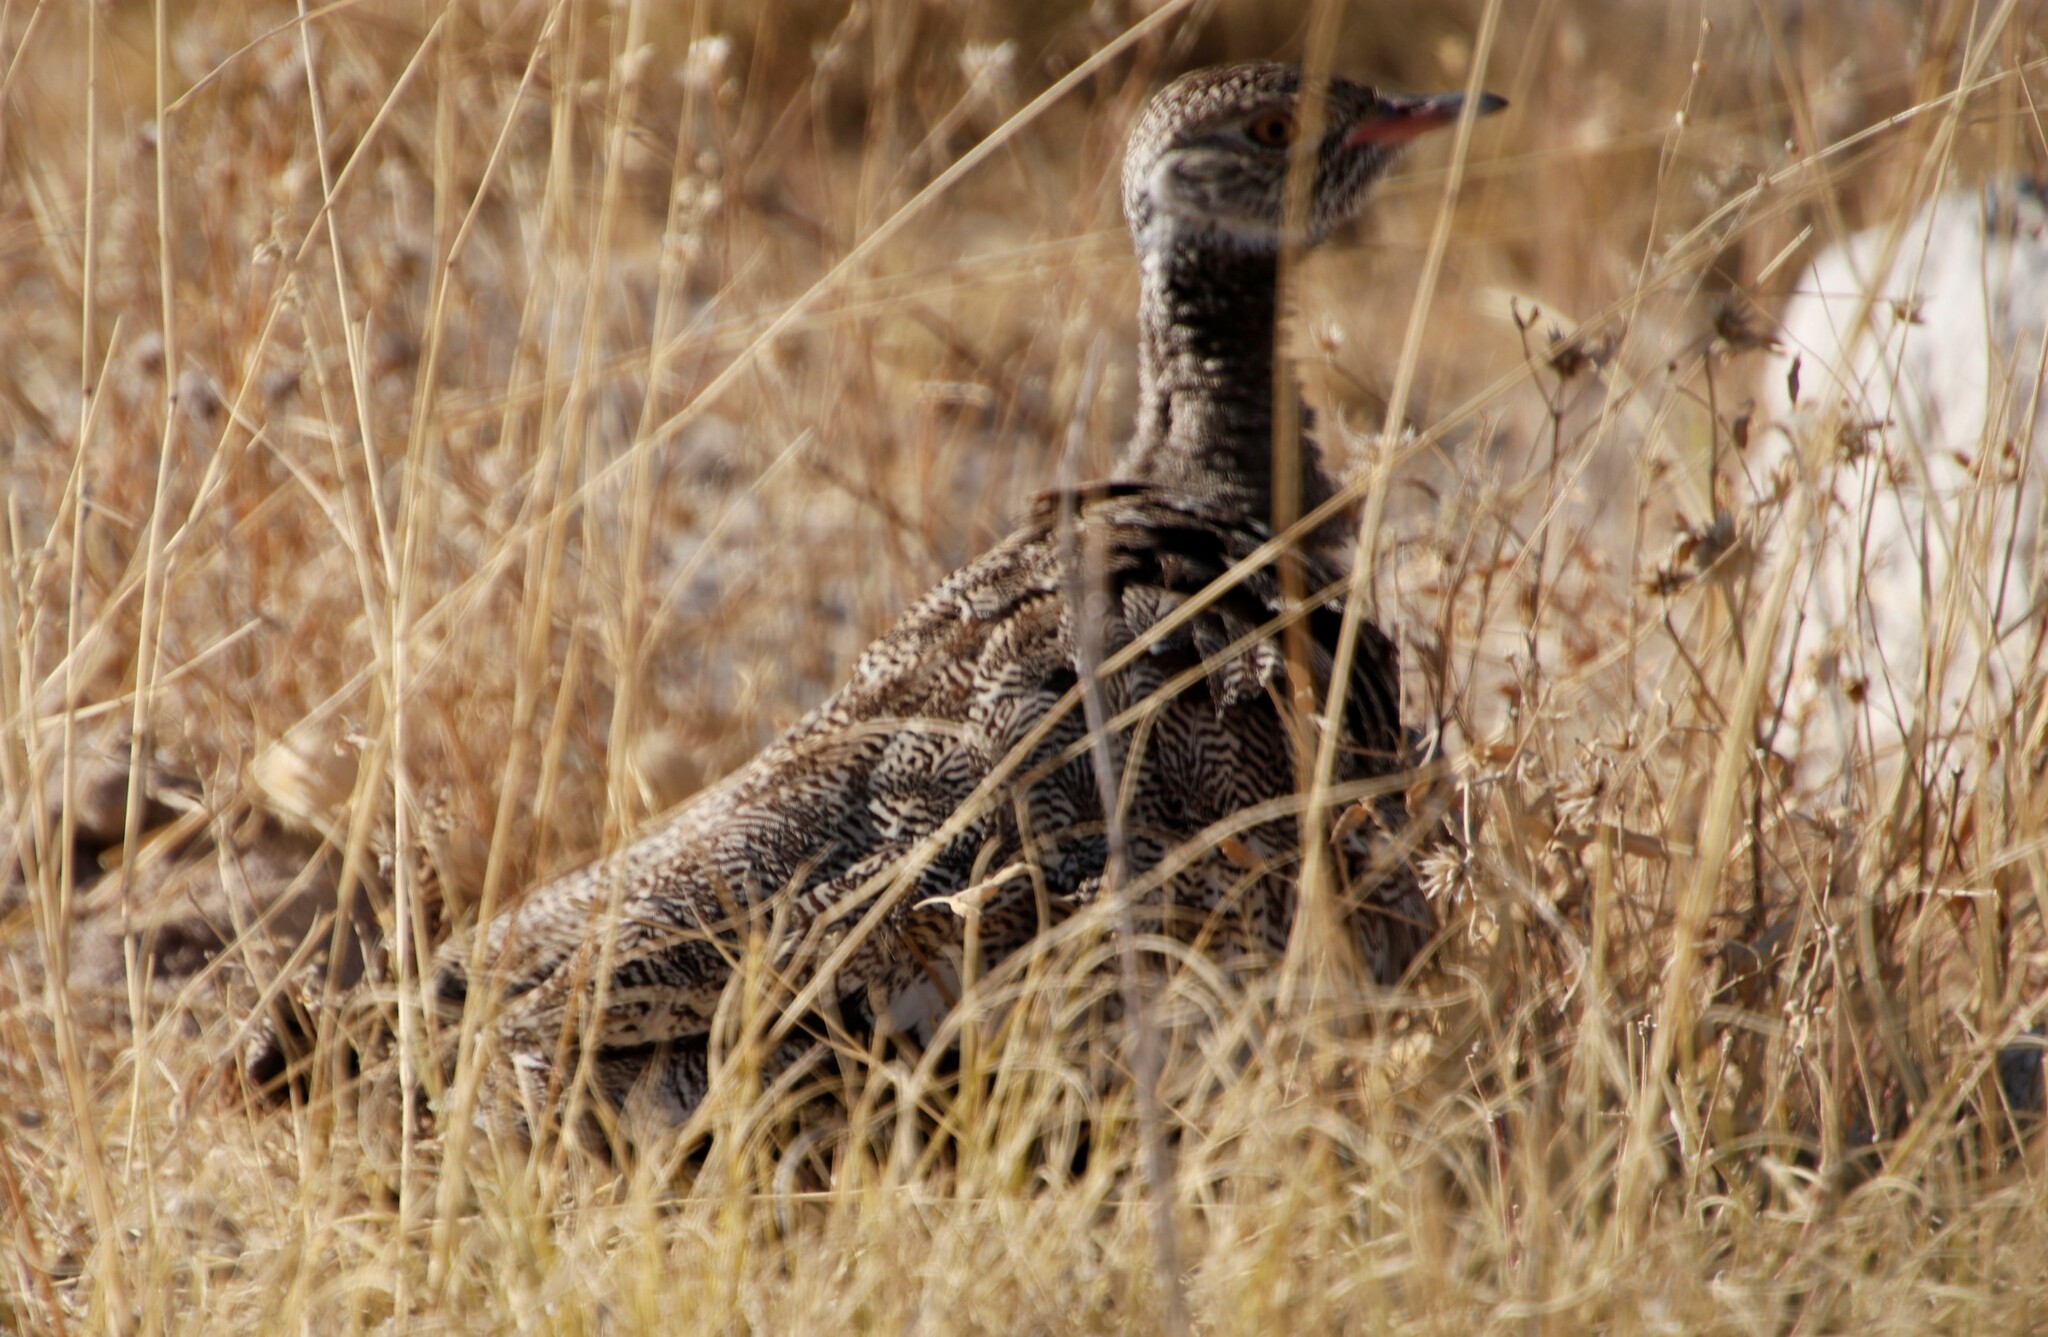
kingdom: Animalia
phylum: Chordata
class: Aves
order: Otidiformes
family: Otididae
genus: Afrotis
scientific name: Afrotis afraoides
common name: Northern black korhaan
